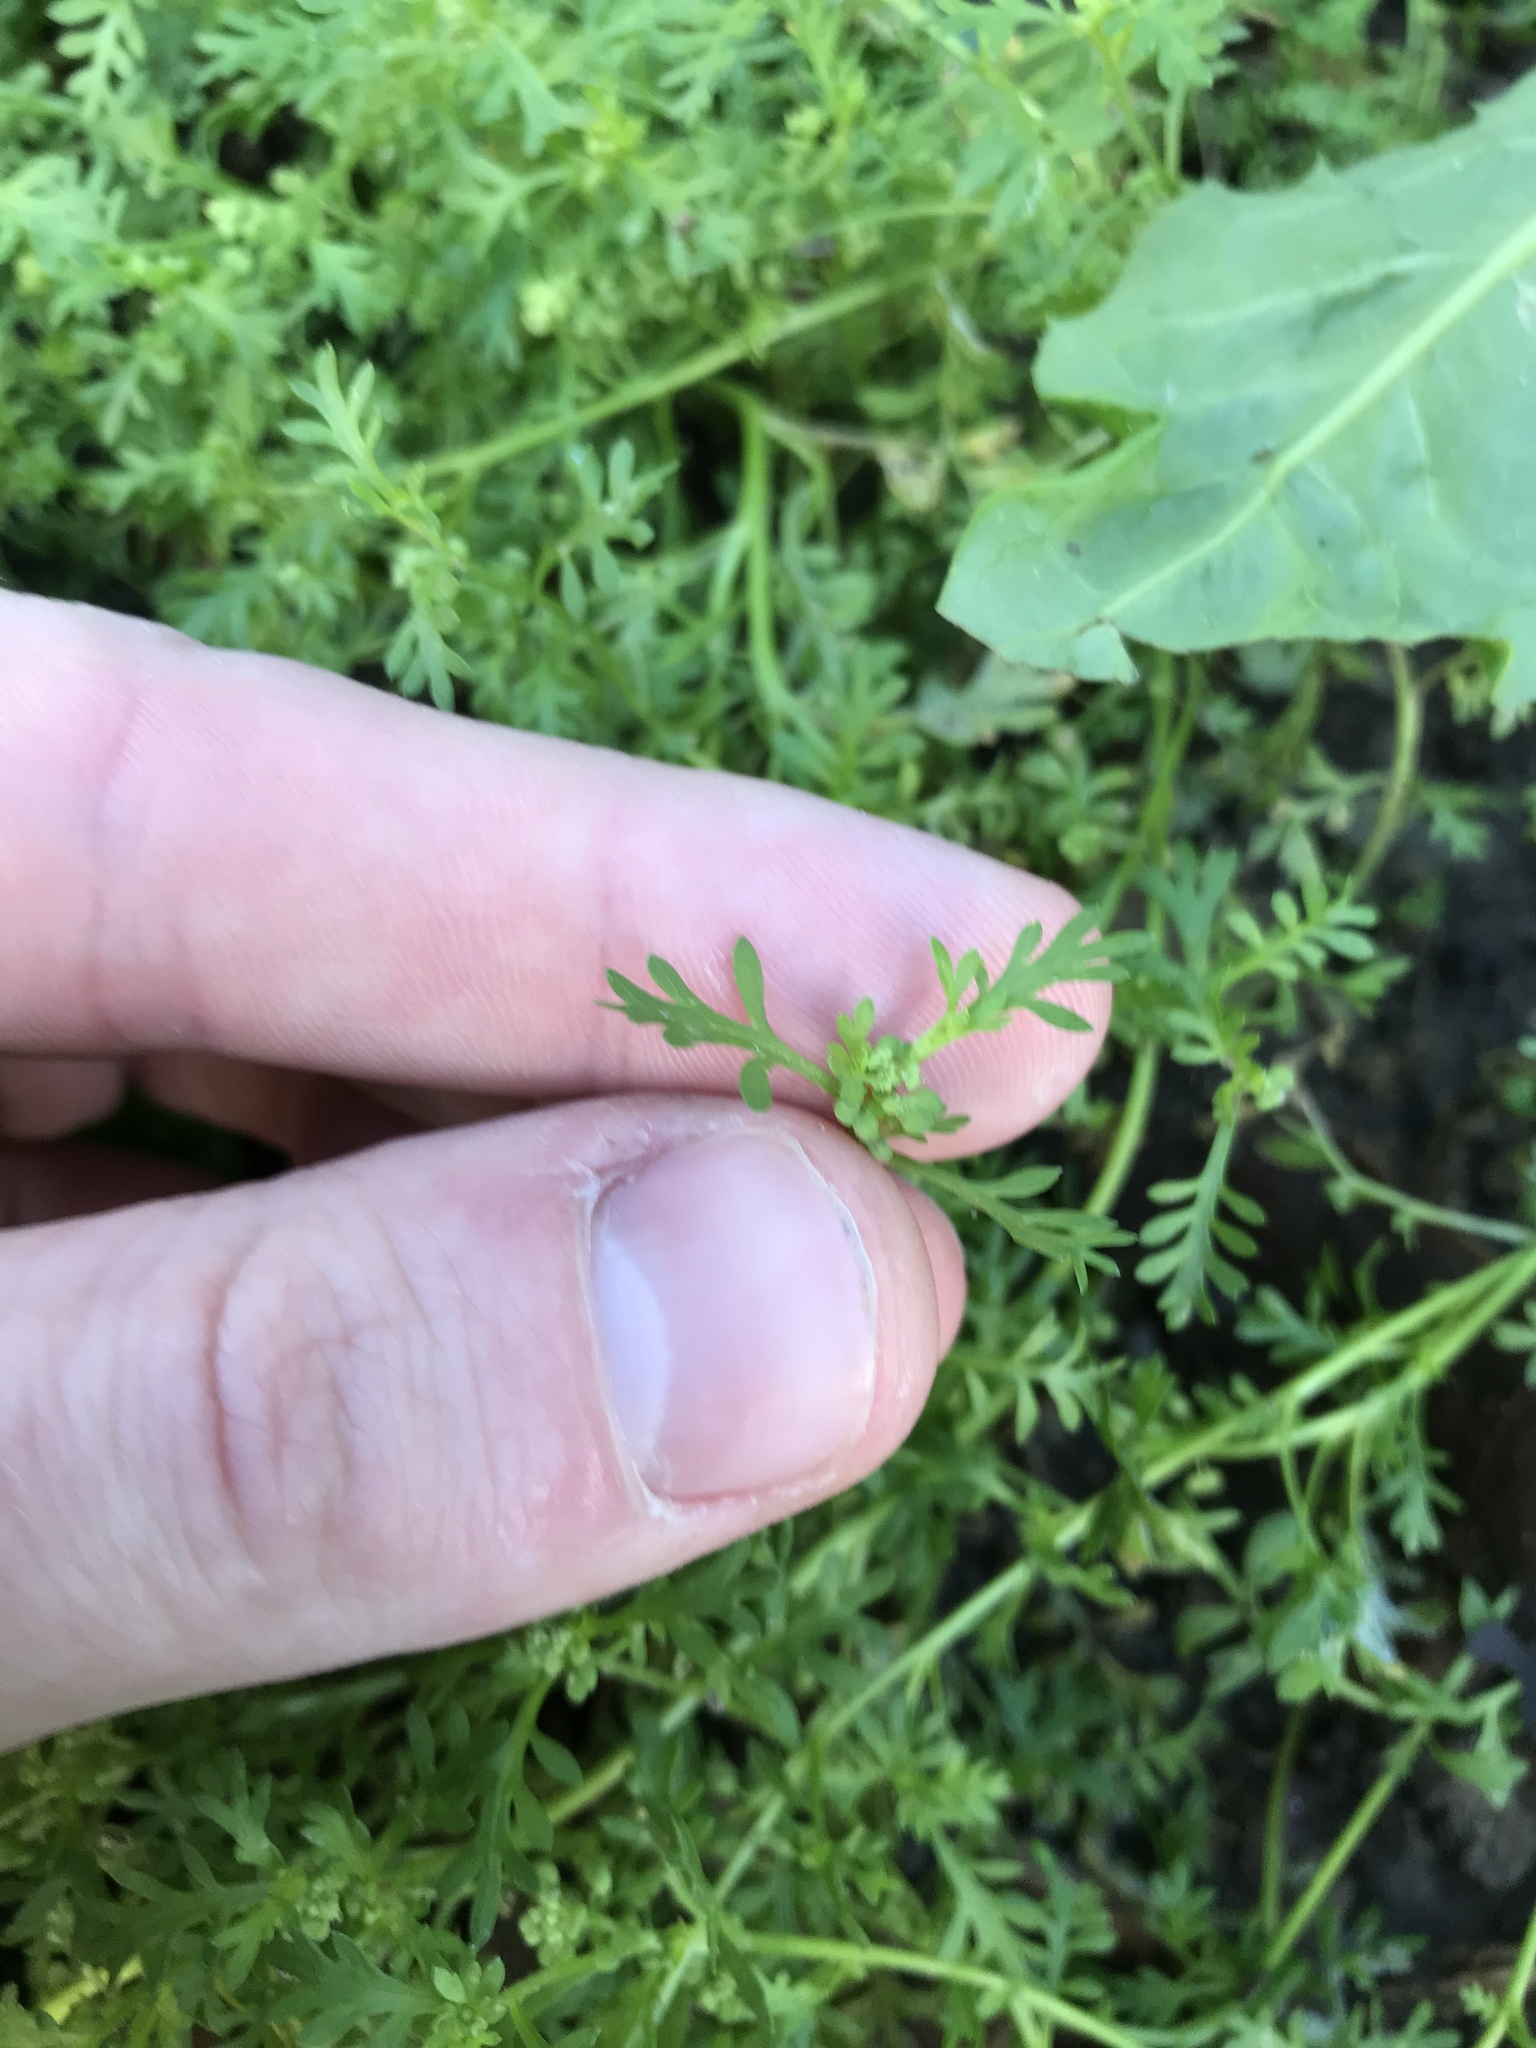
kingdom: Plantae
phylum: Tracheophyta
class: Magnoliopsida
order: Brassicales
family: Brassicaceae
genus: Lepidium
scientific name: Lepidium didymum
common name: Lesser swinecress
